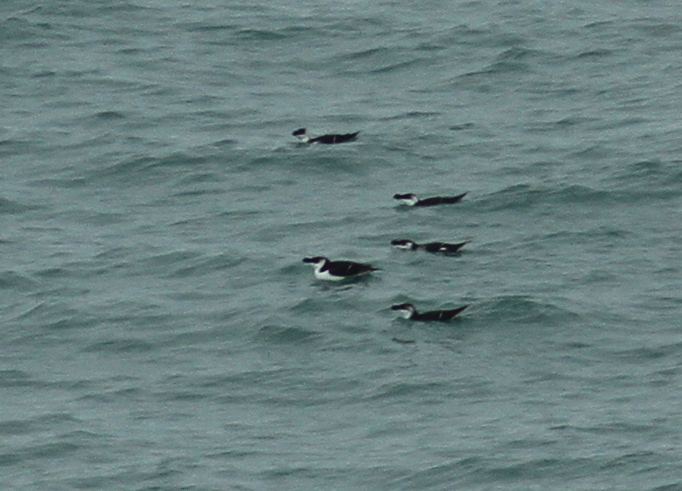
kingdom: Animalia
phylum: Chordata
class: Aves
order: Charadriiformes
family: Alcidae
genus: Alca
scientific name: Alca torda
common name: Razorbill
